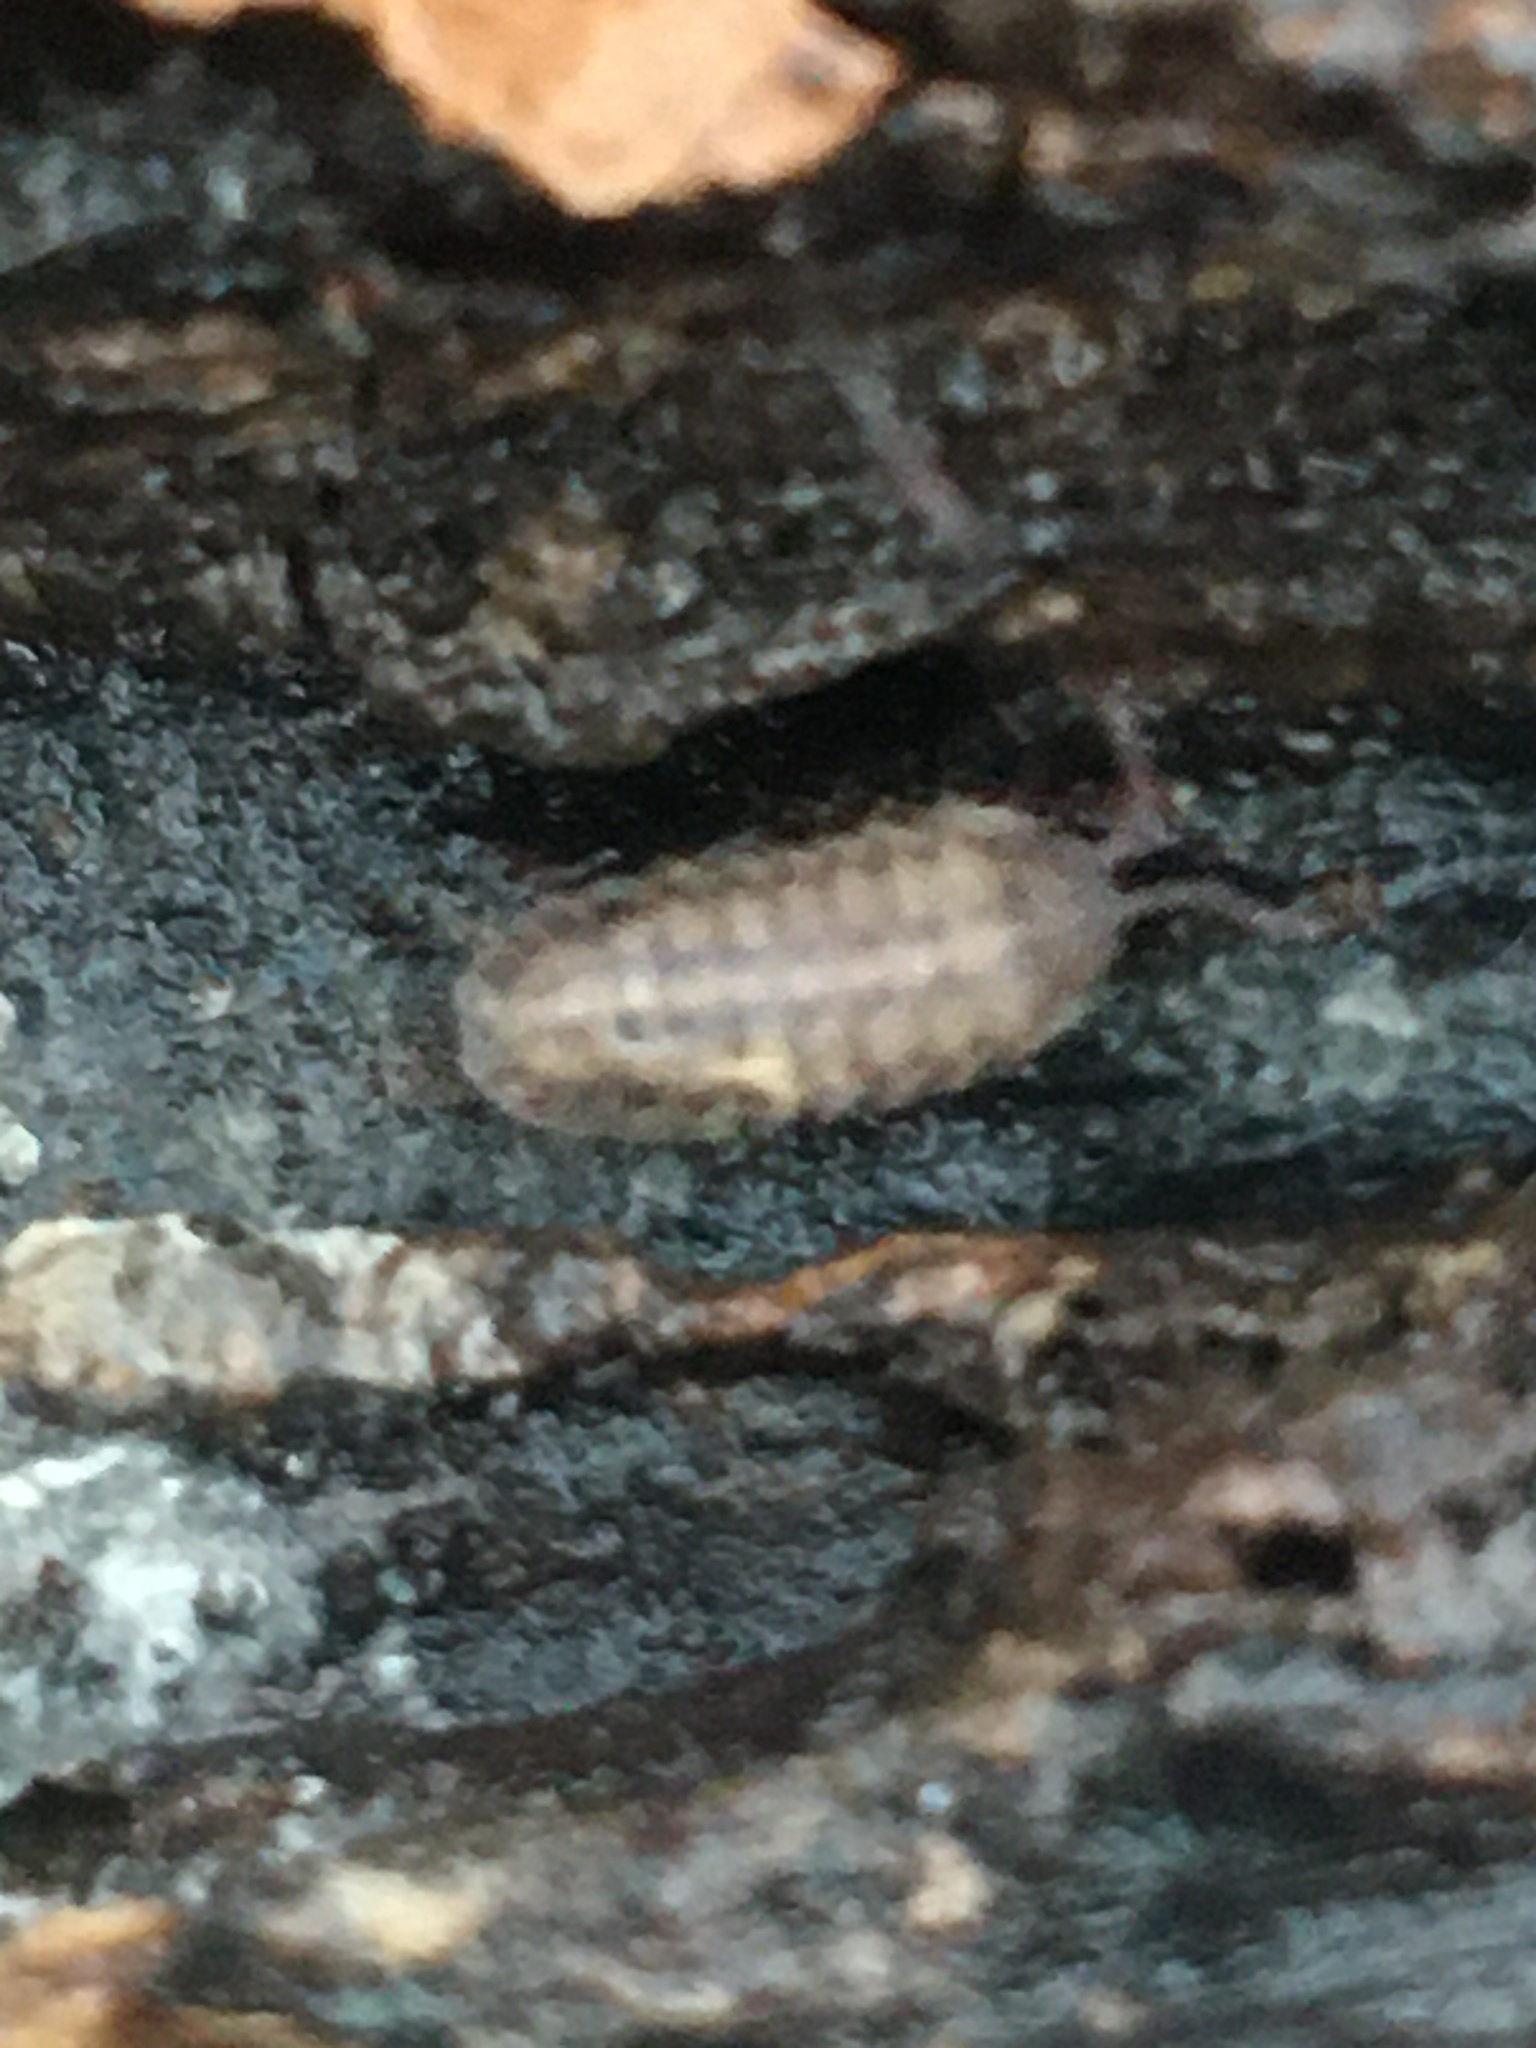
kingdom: Animalia
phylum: Arthropoda
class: Malacostraca
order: Isopoda
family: Armadillidiidae
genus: Armadillidium
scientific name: Armadillidium nasatum
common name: Isopod
